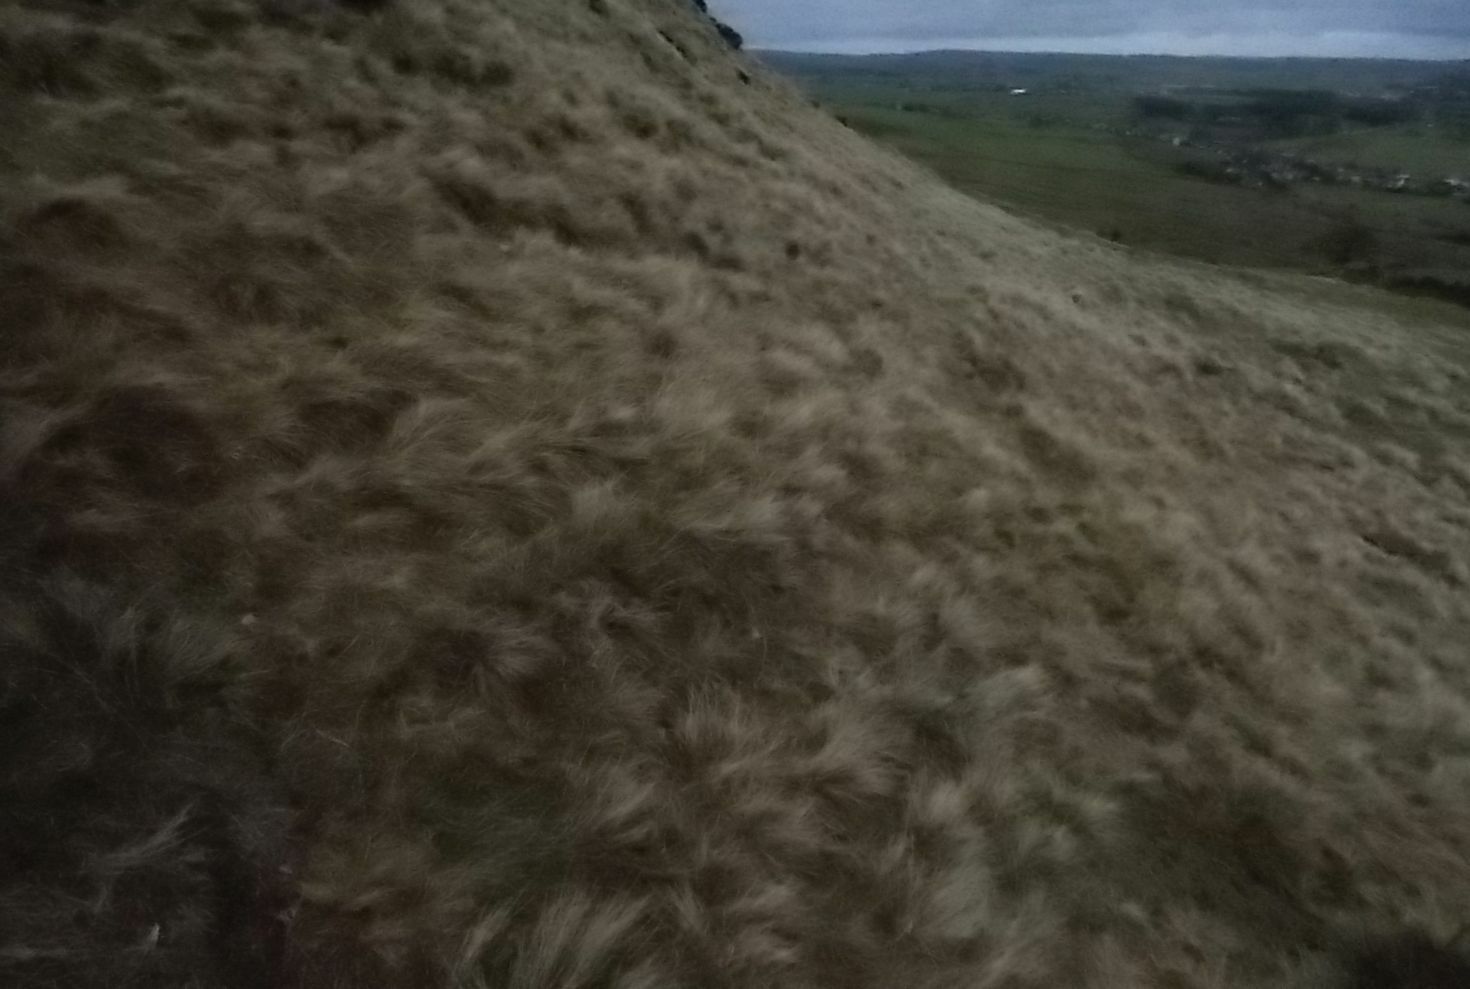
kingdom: Plantae
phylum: Tracheophyta
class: Liliopsida
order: Poales
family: Poaceae
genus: Nardus
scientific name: Nardus stricta
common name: Mat-grass
